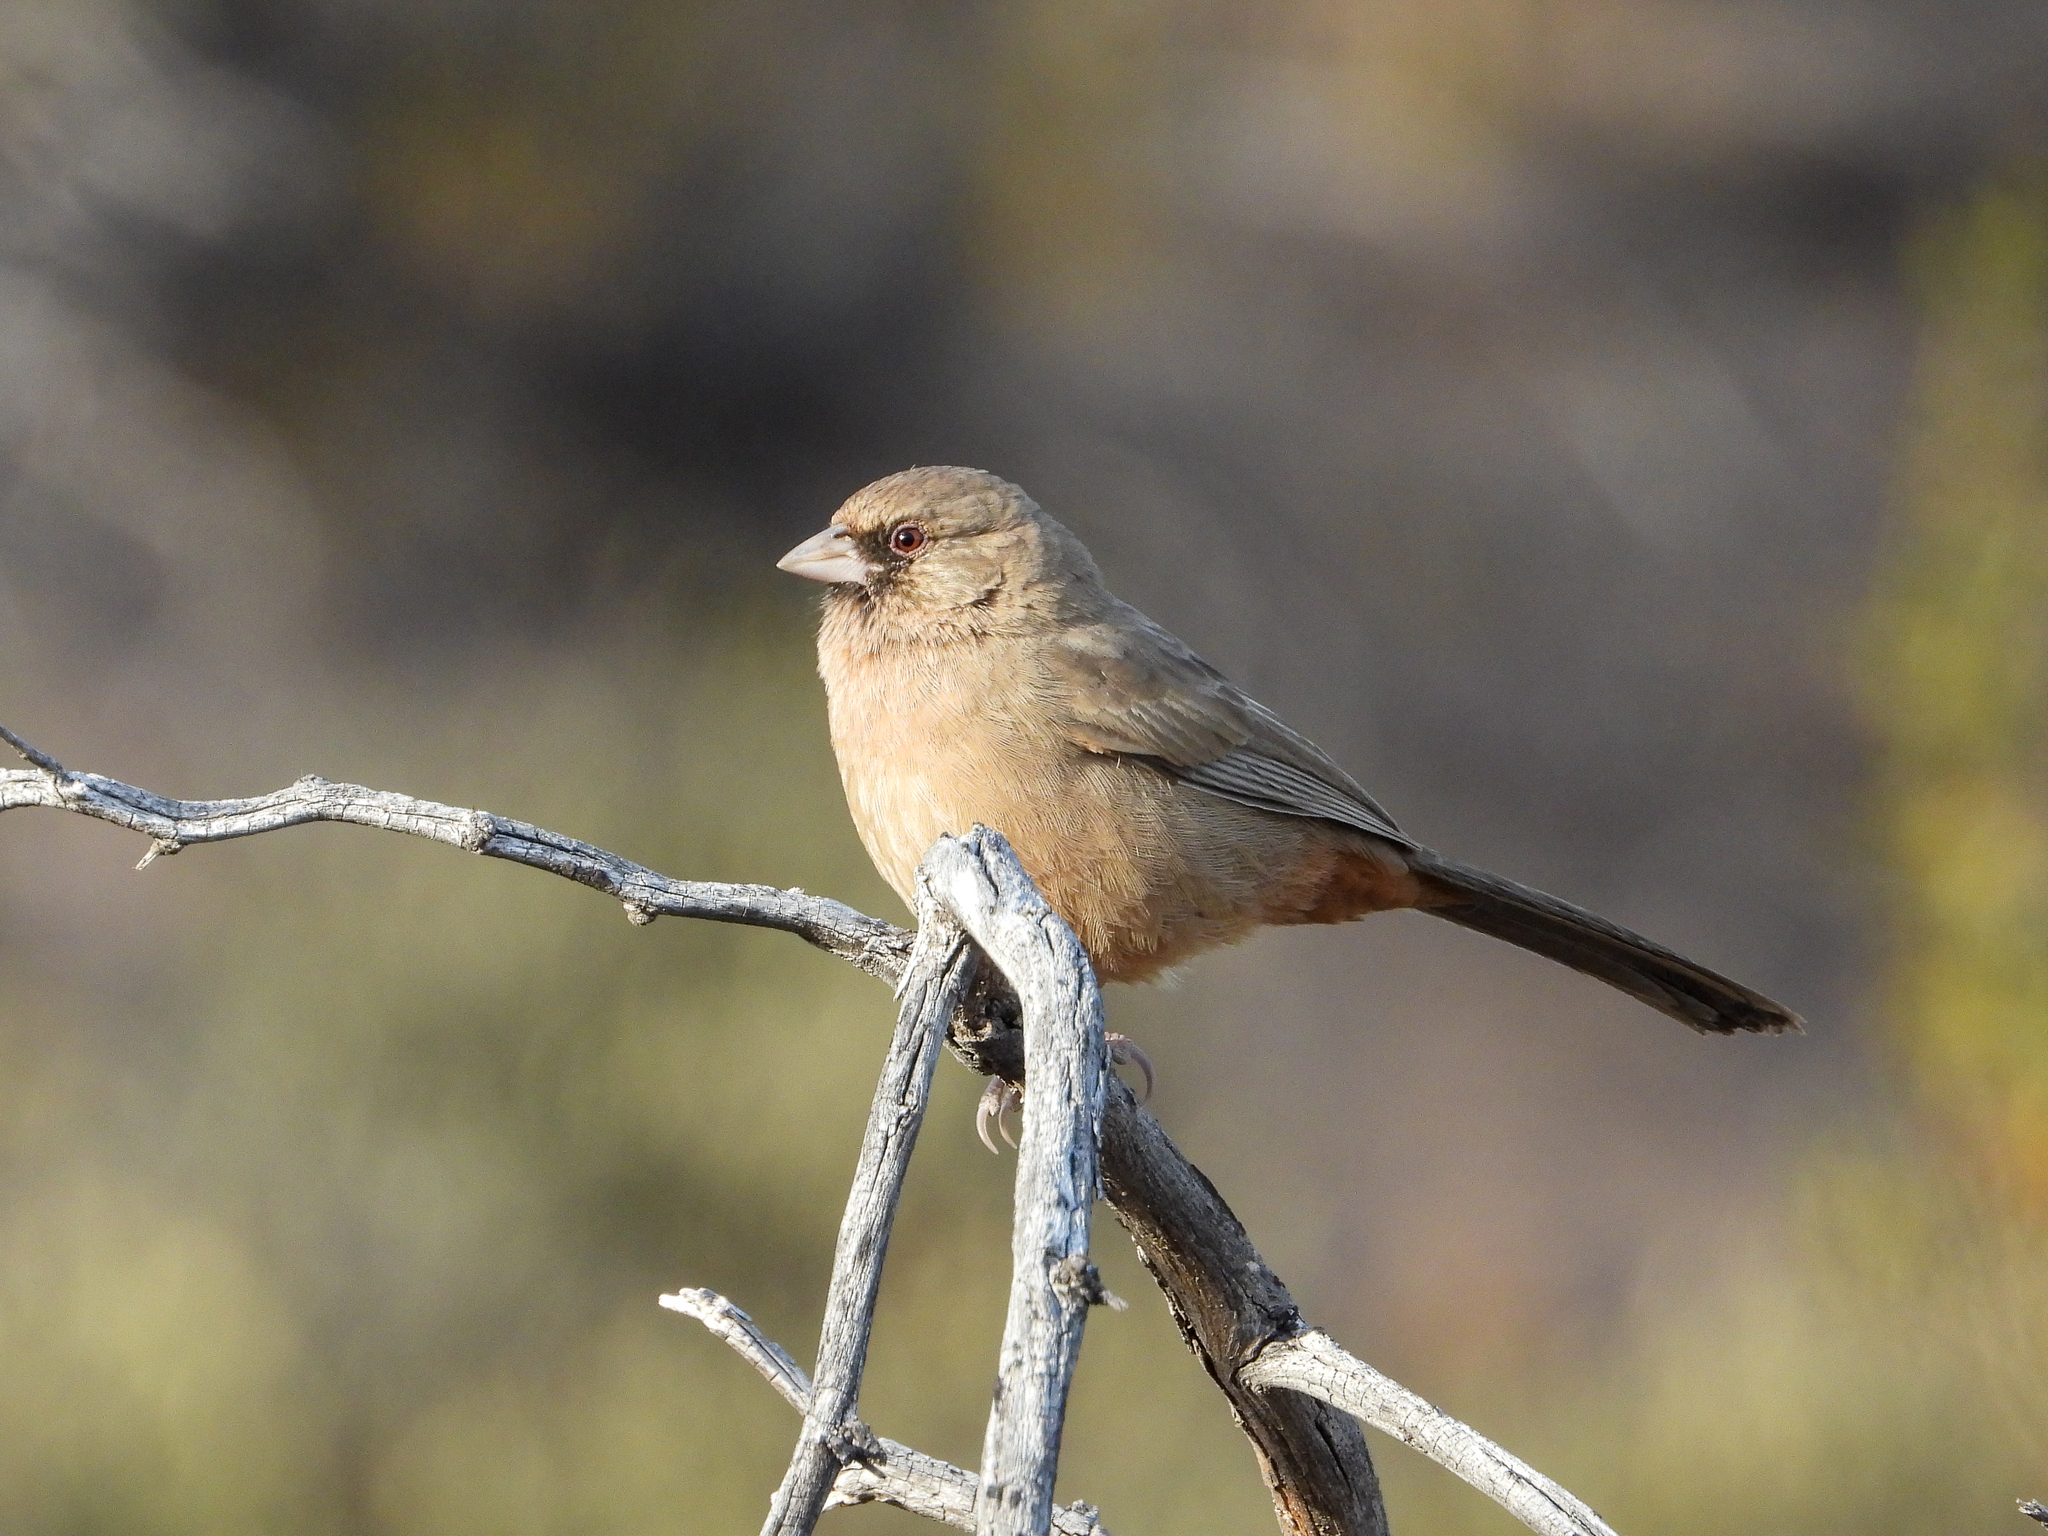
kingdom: Animalia
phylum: Chordata
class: Aves
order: Passeriformes
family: Passerellidae
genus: Melozone
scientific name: Melozone aberti
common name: Abert's towhee
